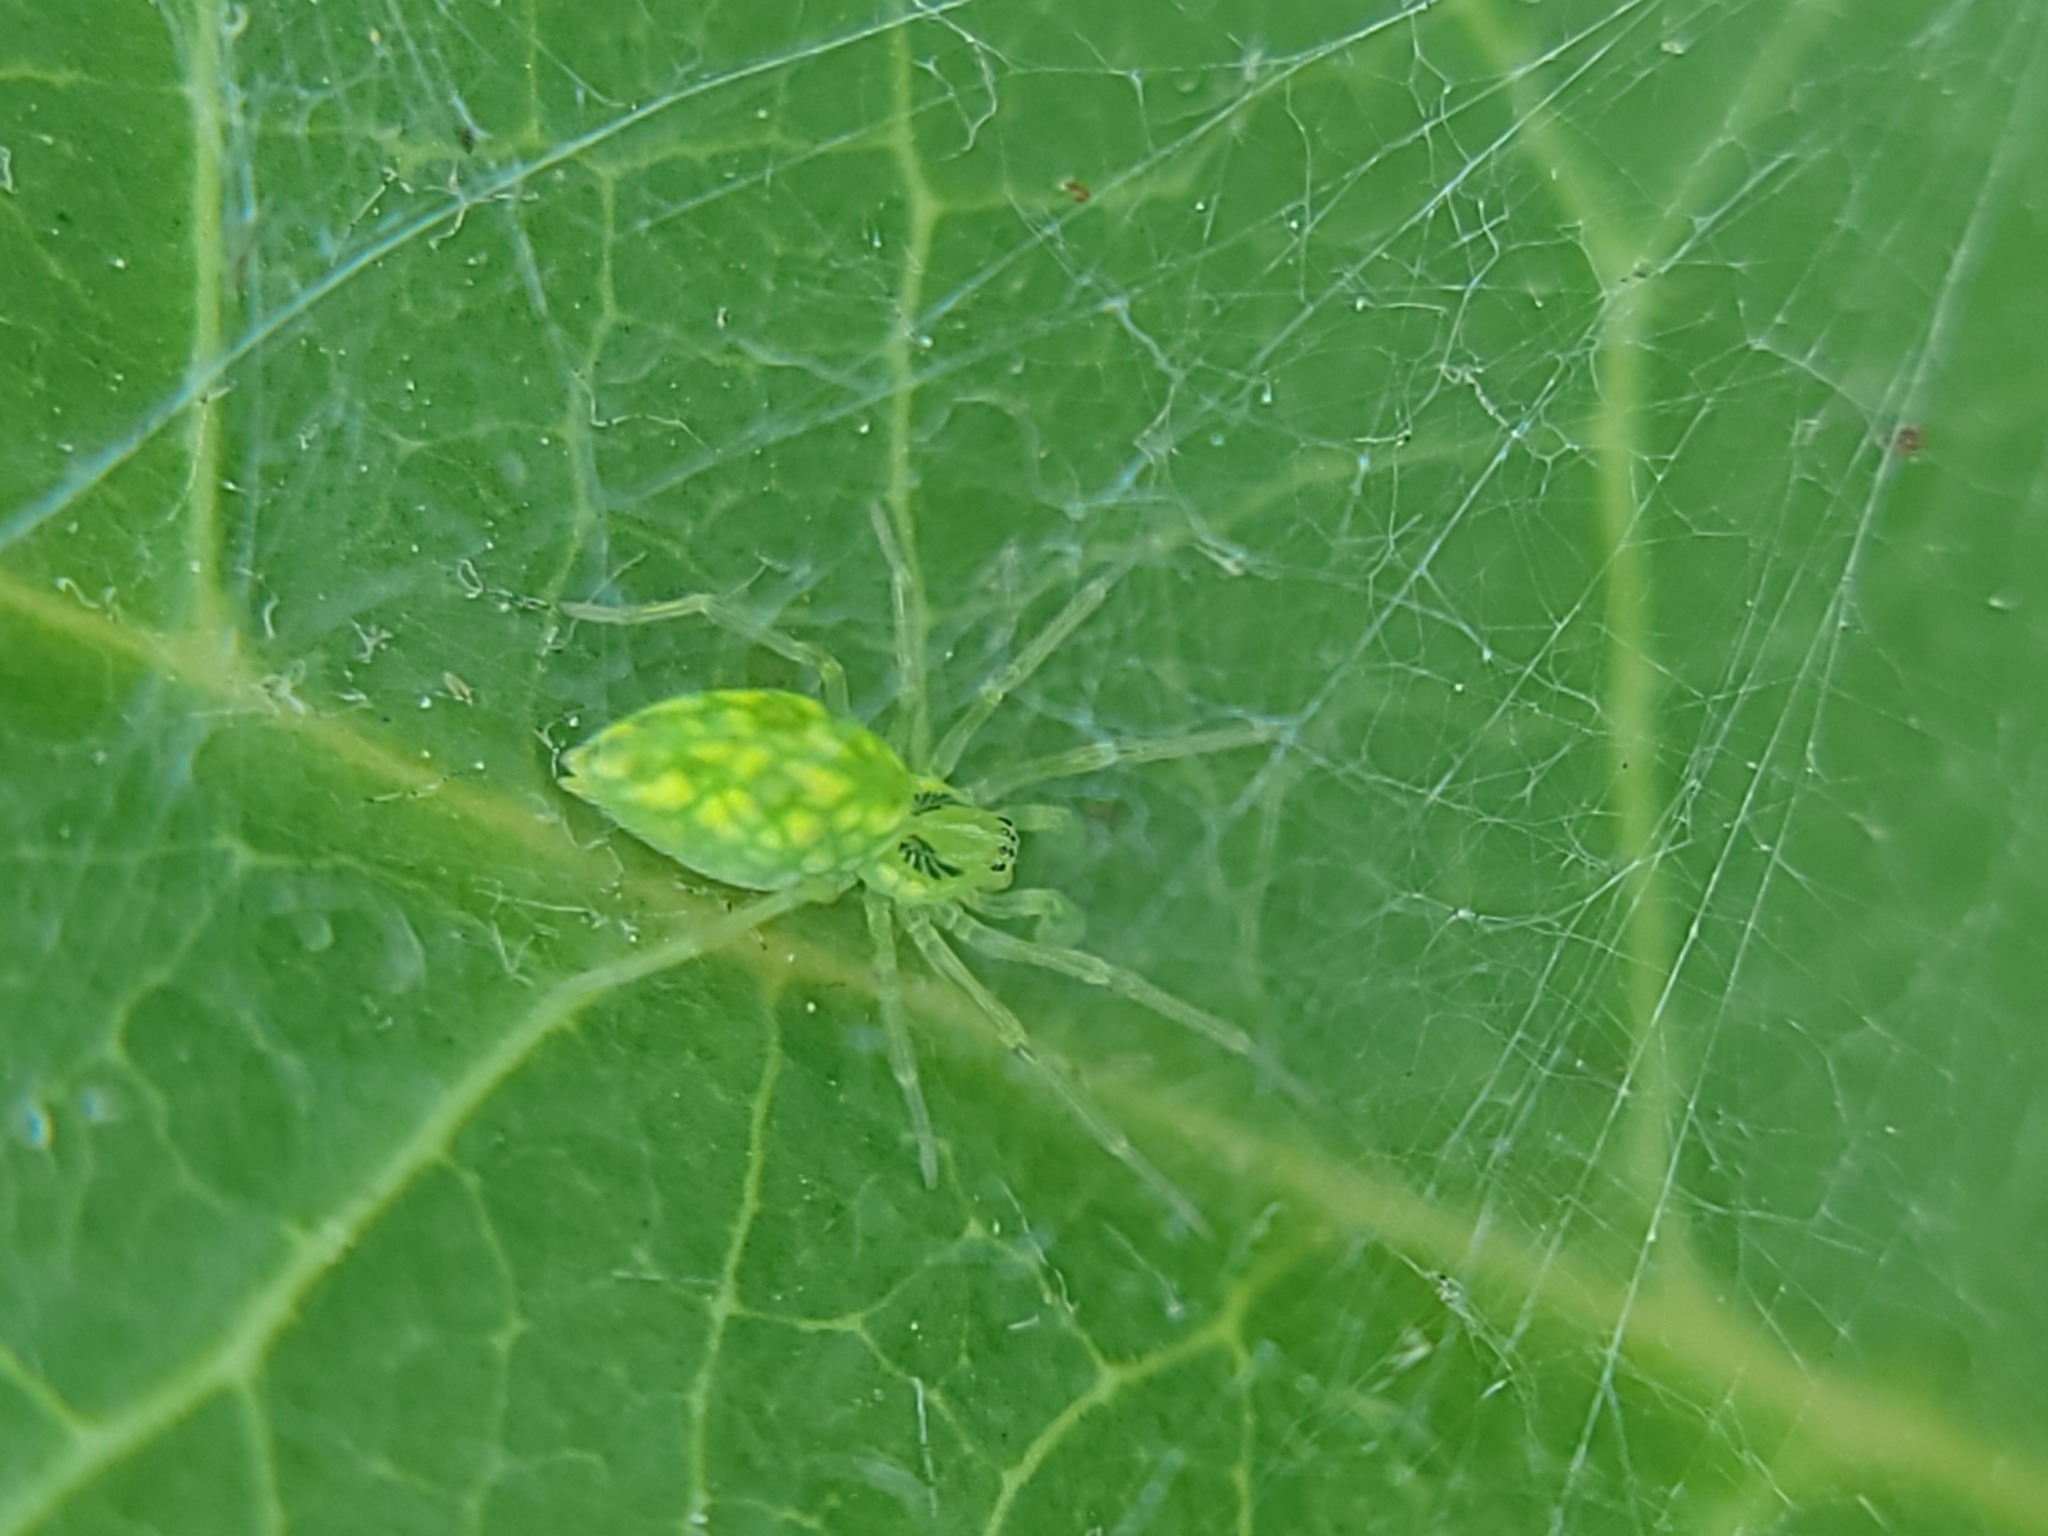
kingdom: Animalia
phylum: Arthropoda
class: Arachnida
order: Araneae
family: Dictynidae
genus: Nigma
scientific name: Nigma linsdalei
